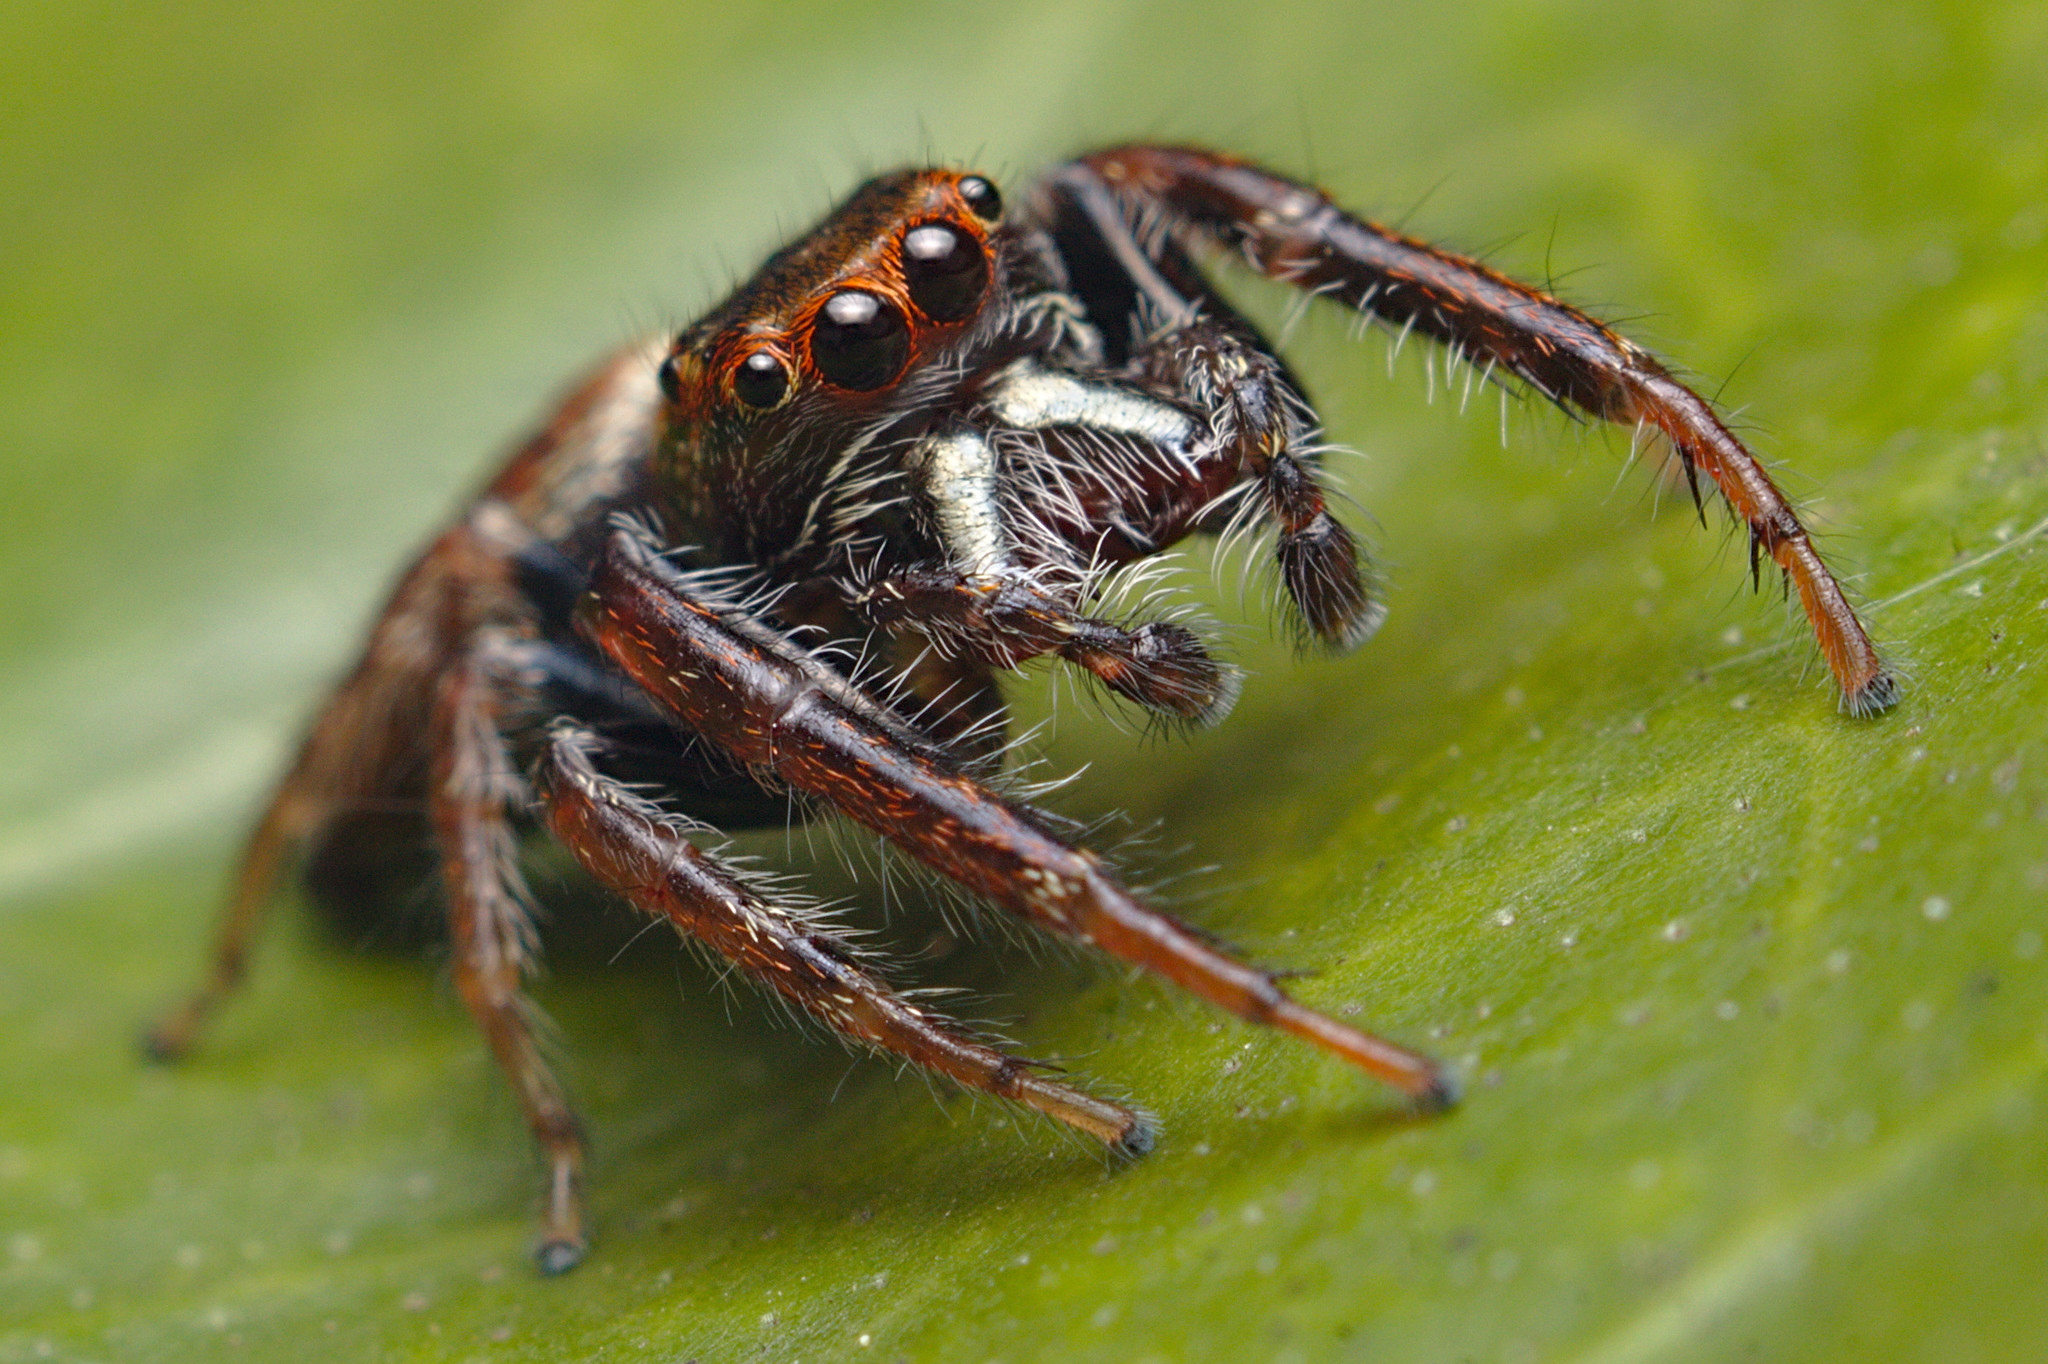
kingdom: Animalia
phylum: Arthropoda
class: Arachnida
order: Araneae
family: Salticidae
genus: Opisthoncus
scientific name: Opisthoncus polyphemus
